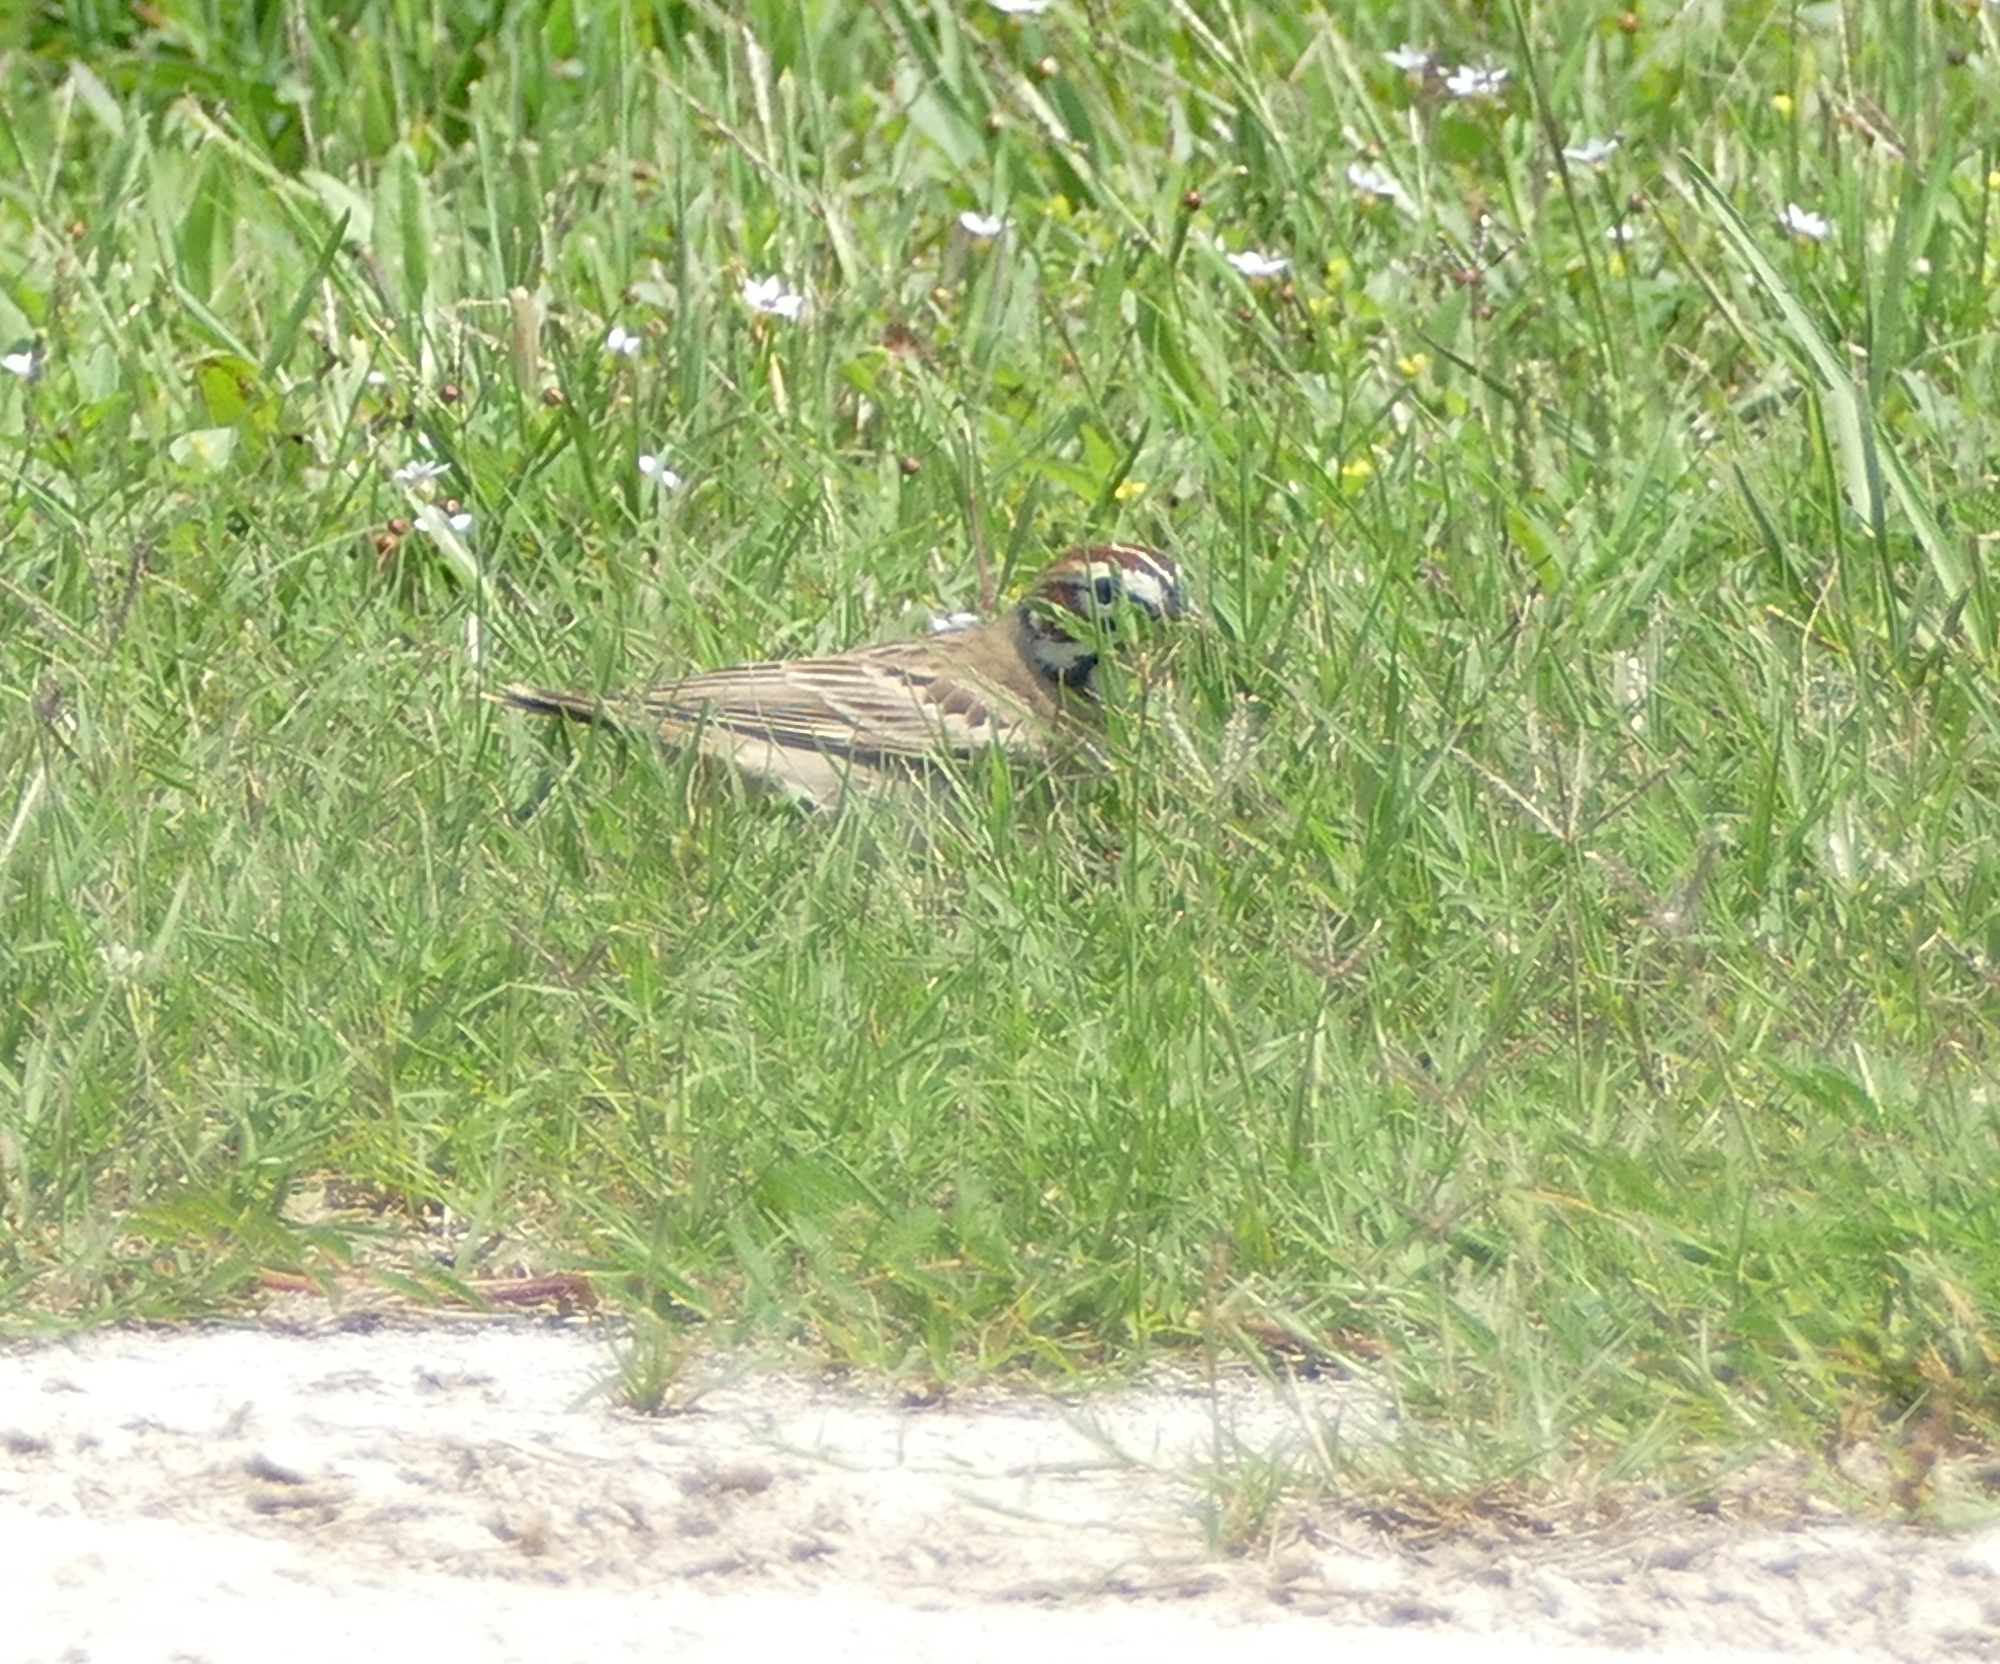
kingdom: Animalia
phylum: Chordata
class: Aves
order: Passeriformes
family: Passerellidae
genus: Chondestes
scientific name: Chondestes grammacus
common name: Lark sparrow
